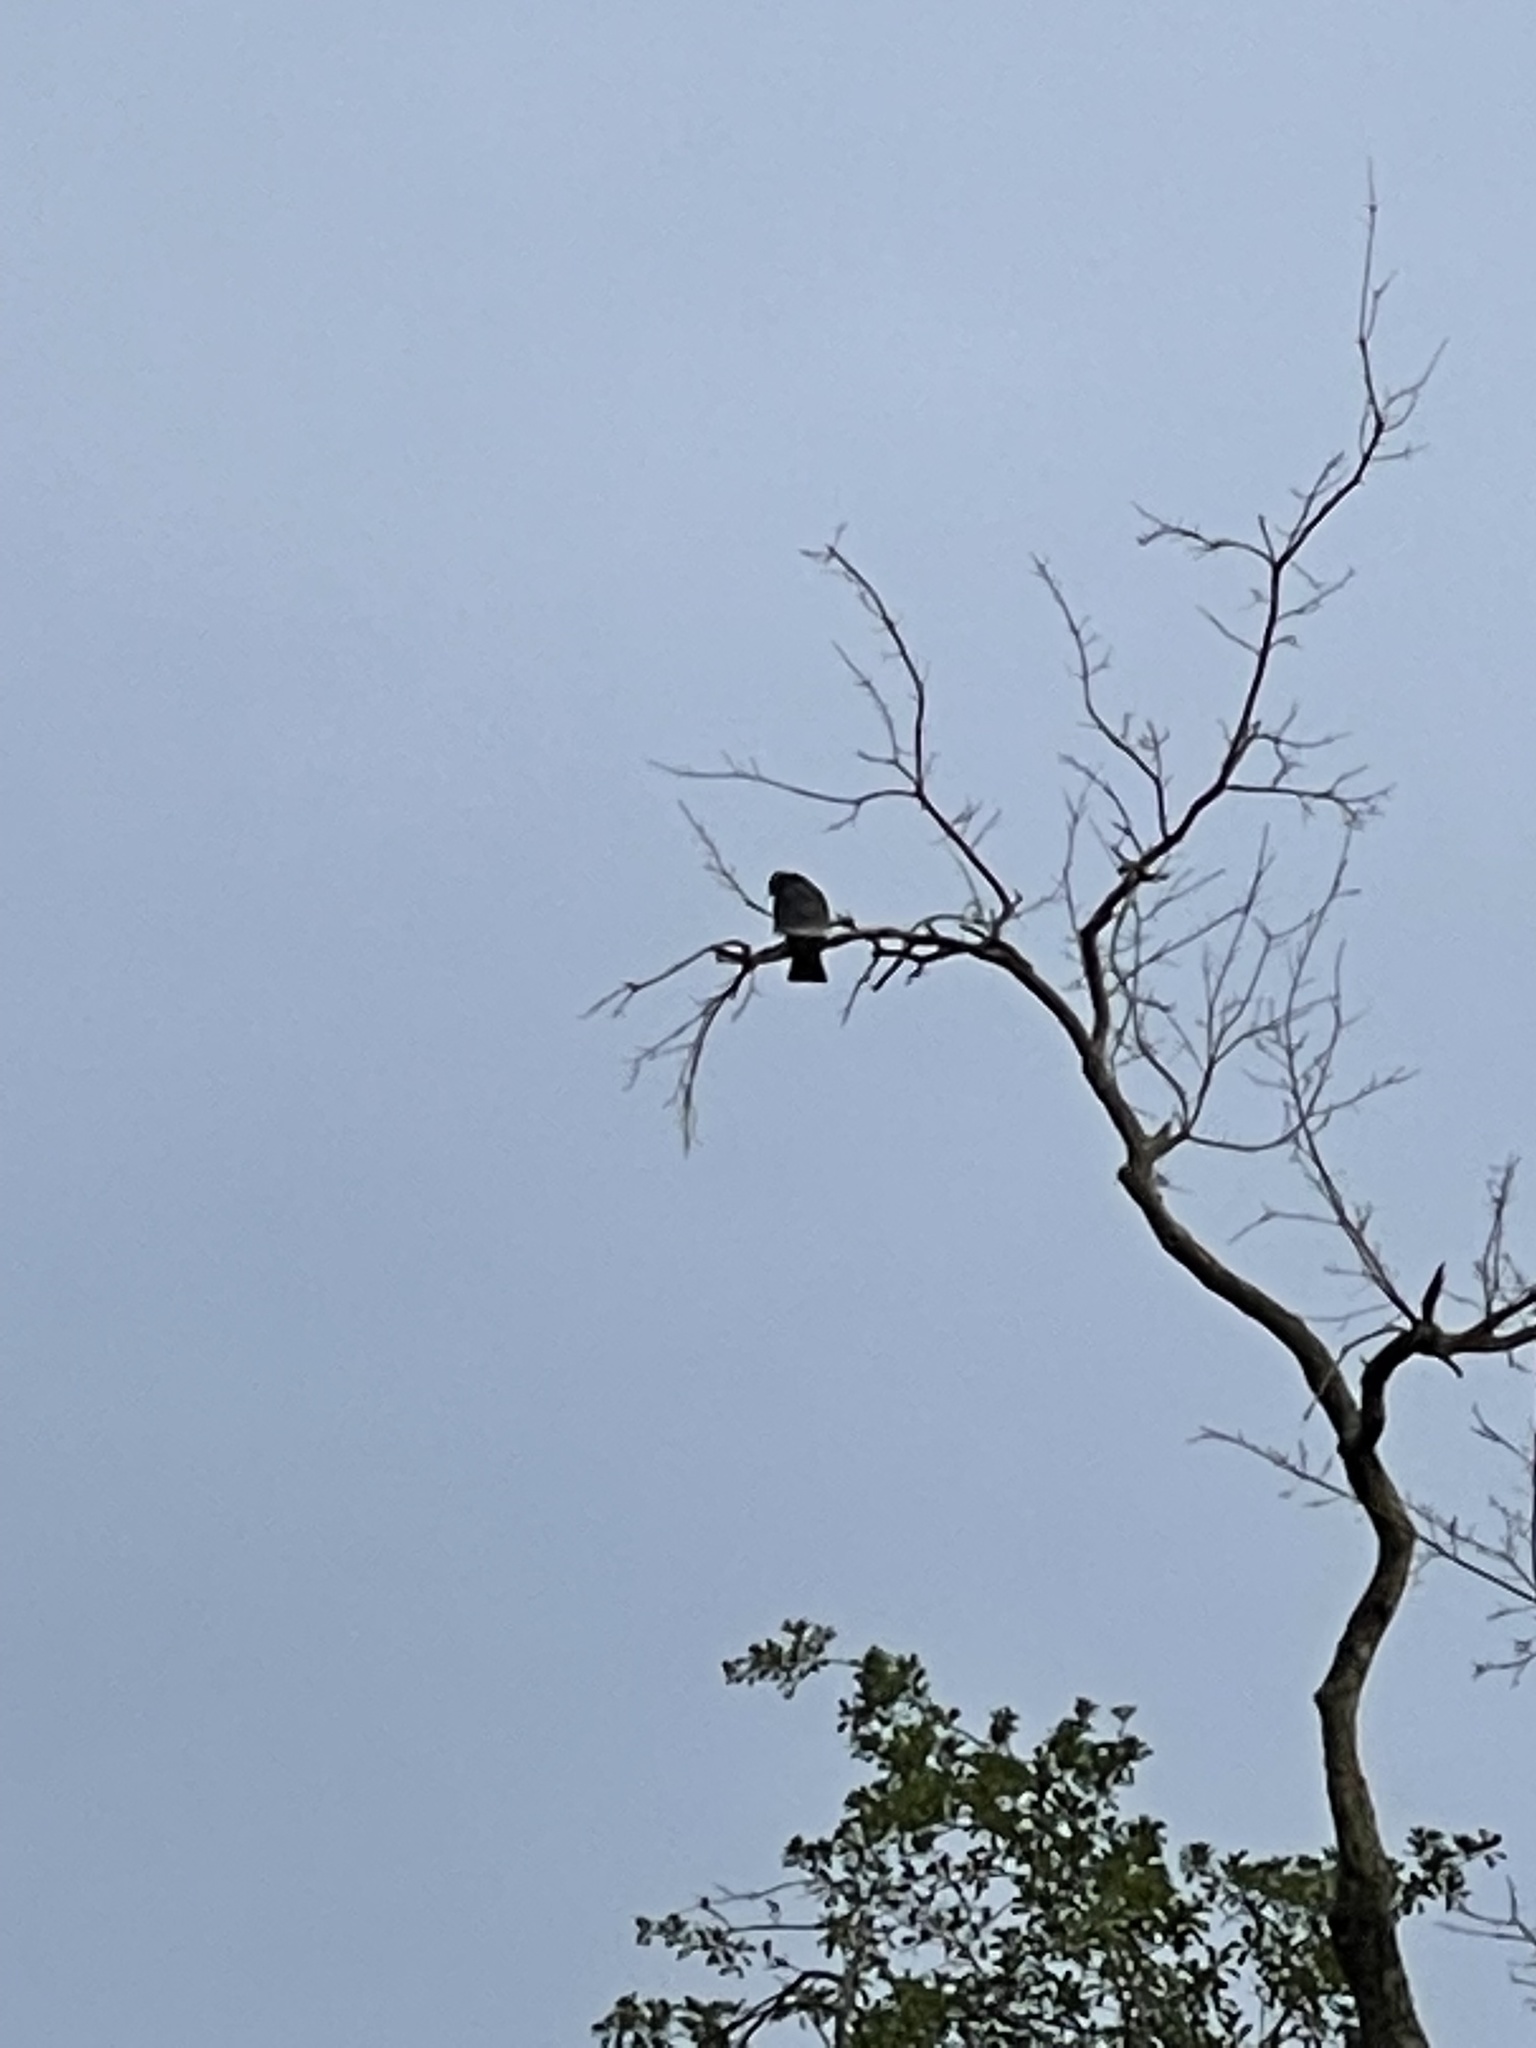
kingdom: Animalia
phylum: Chordata
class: Aves
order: Accipitriformes
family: Accipitridae
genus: Ictinia
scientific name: Ictinia mississippiensis
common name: Mississippi kite
